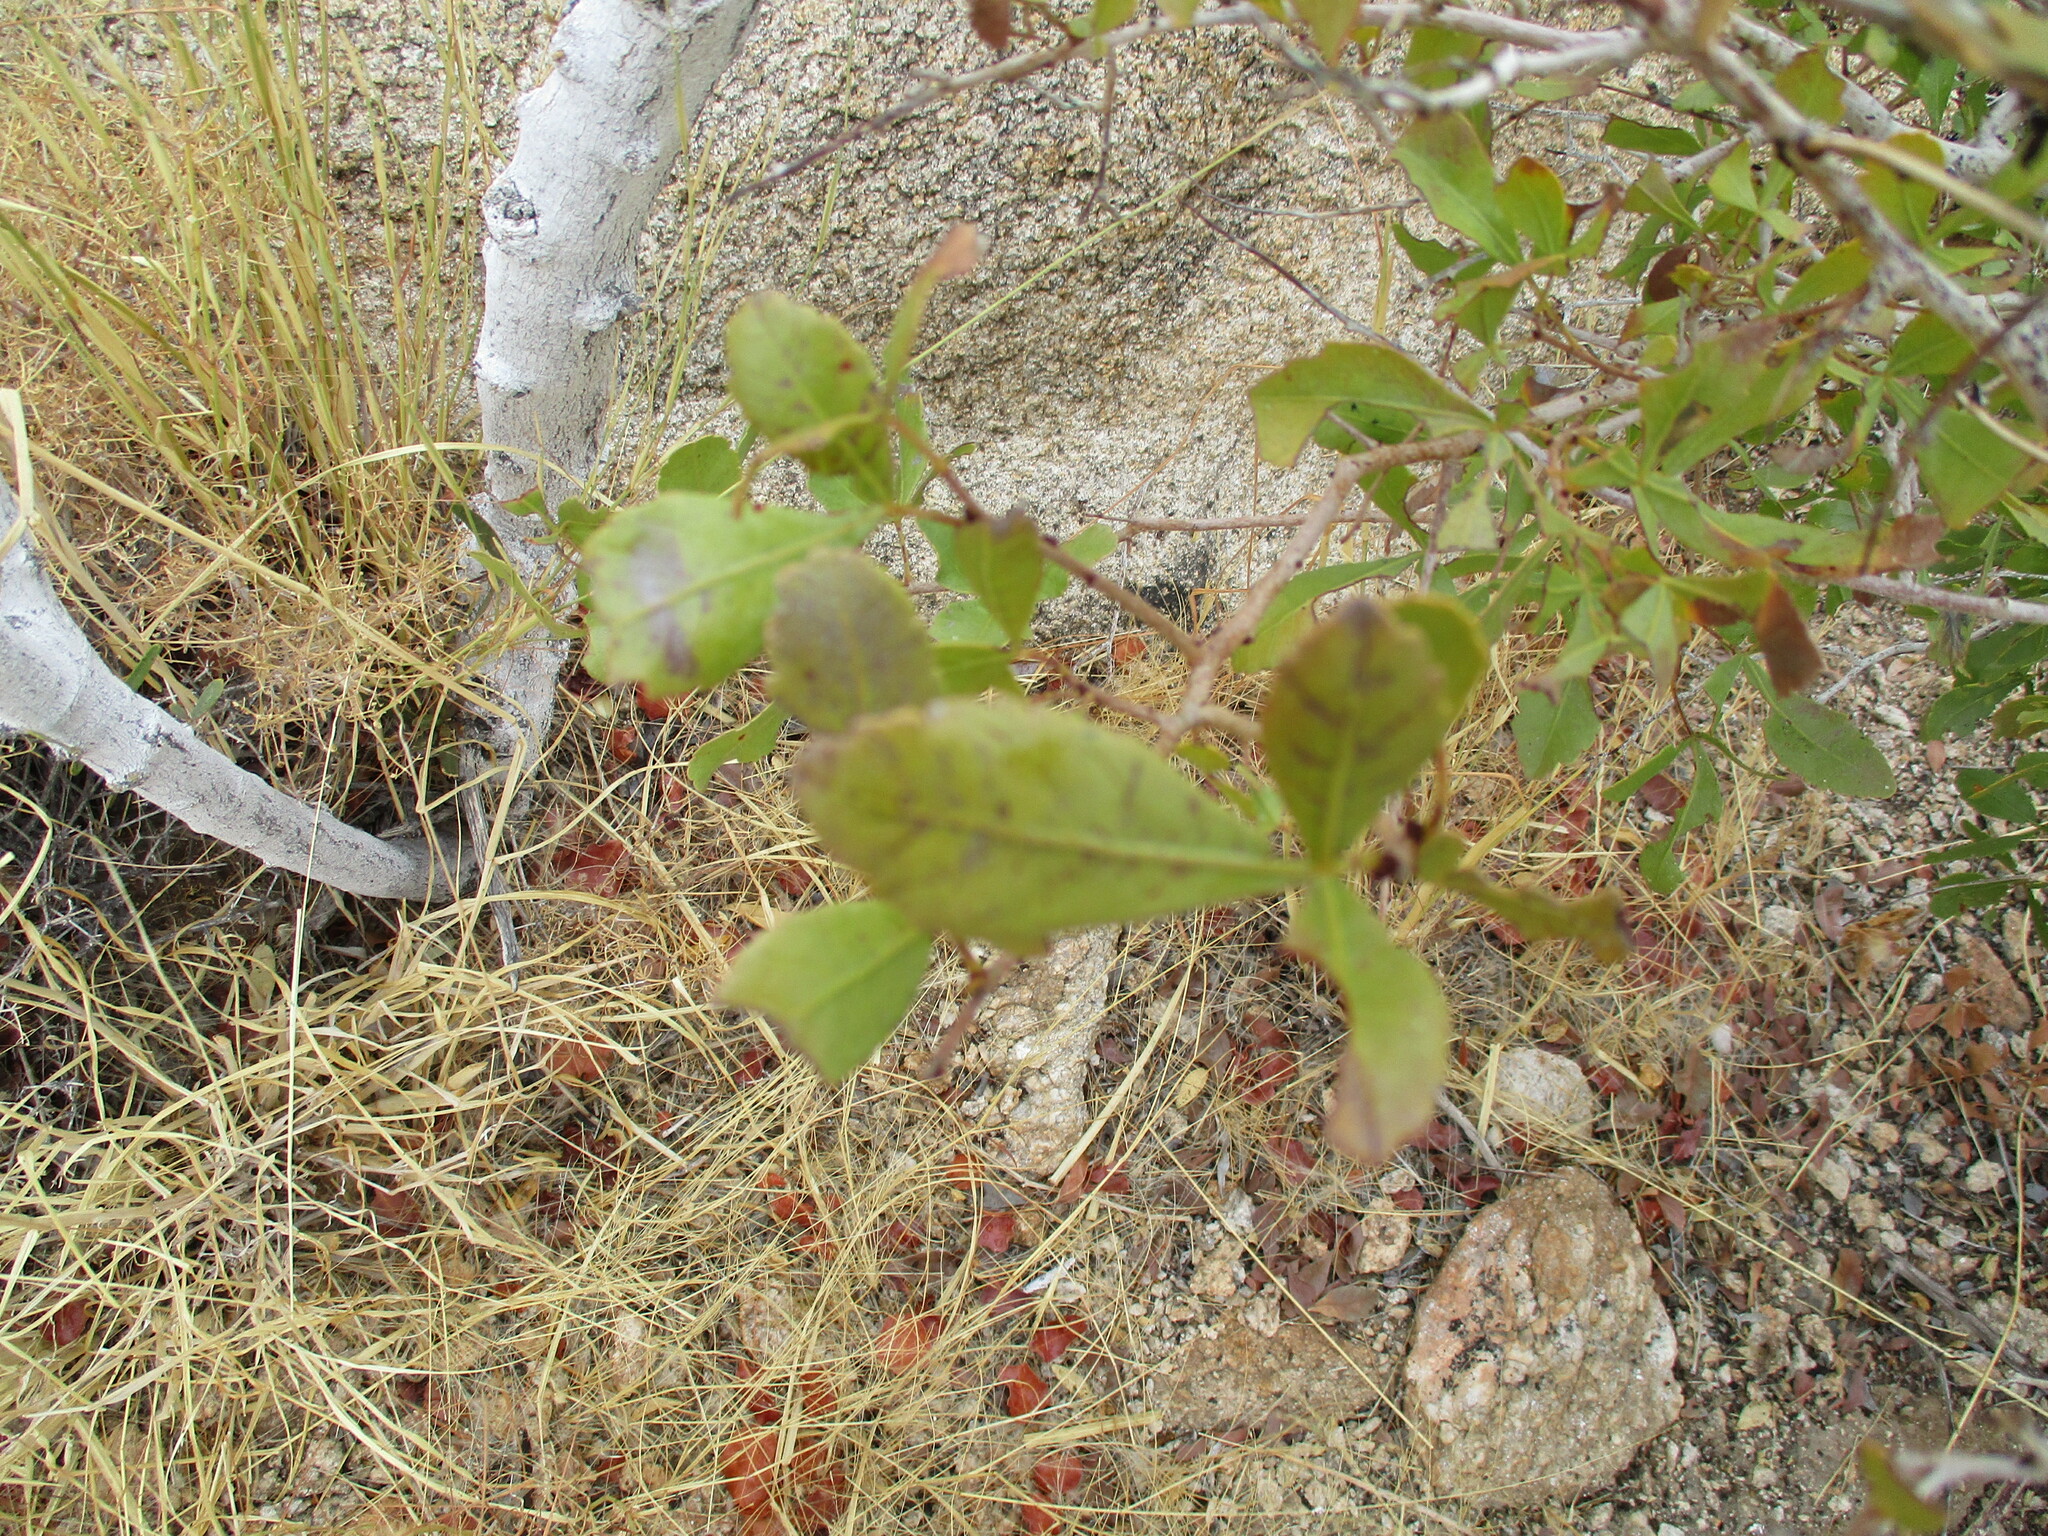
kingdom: Plantae
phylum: Tracheophyta
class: Magnoliopsida
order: Sapindales
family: Anacardiaceae
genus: Searsia
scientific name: Searsia marlothii
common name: Bitter karee
